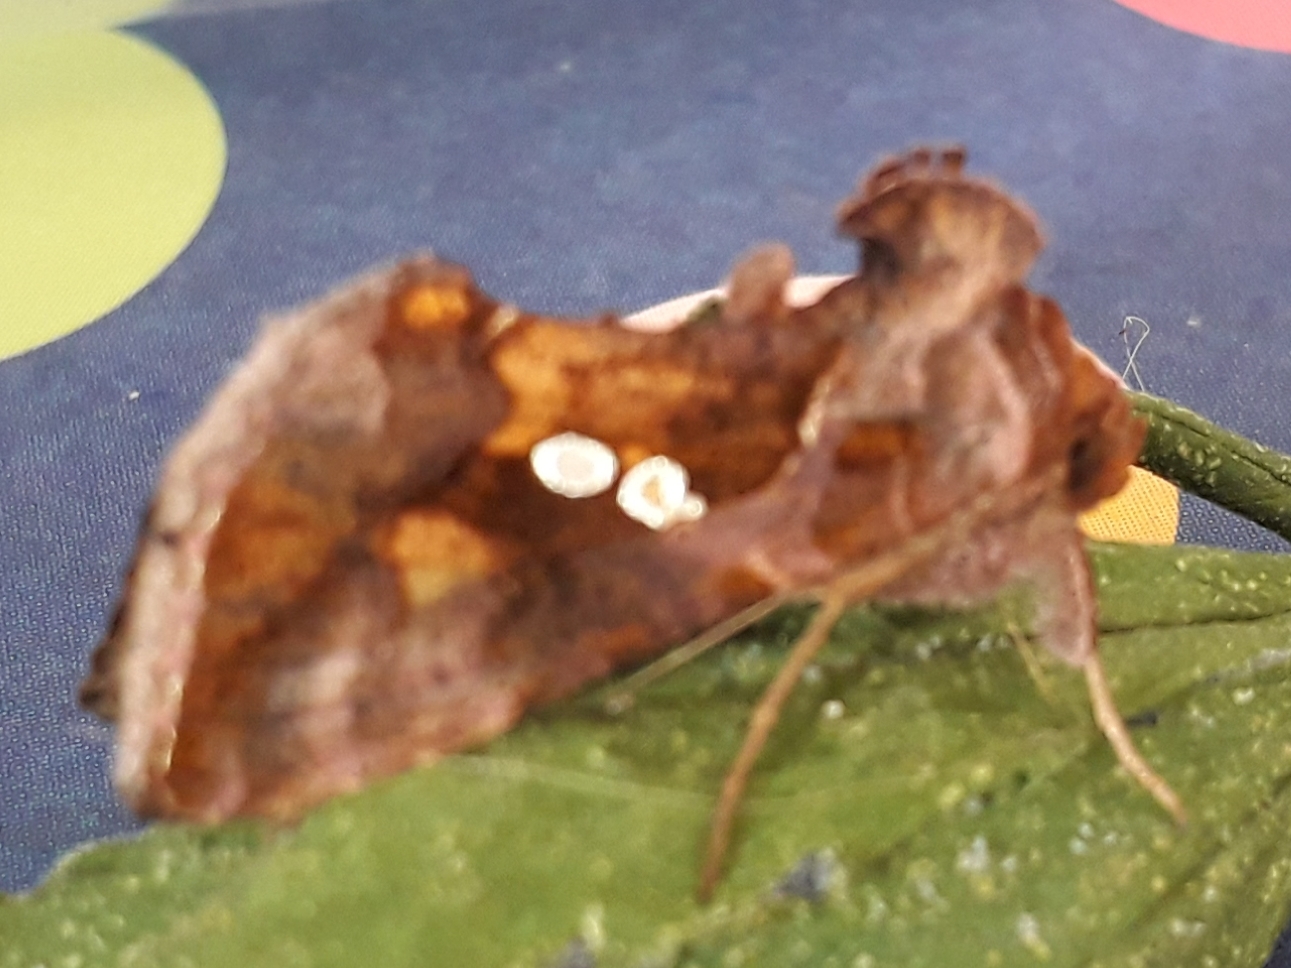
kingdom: Animalia
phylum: Arthropoda
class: Insecta
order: Lepidoptera
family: Noctuidae
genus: Chrysodeixis
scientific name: Chrysodeixis chalcites
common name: Golden twin-spot
